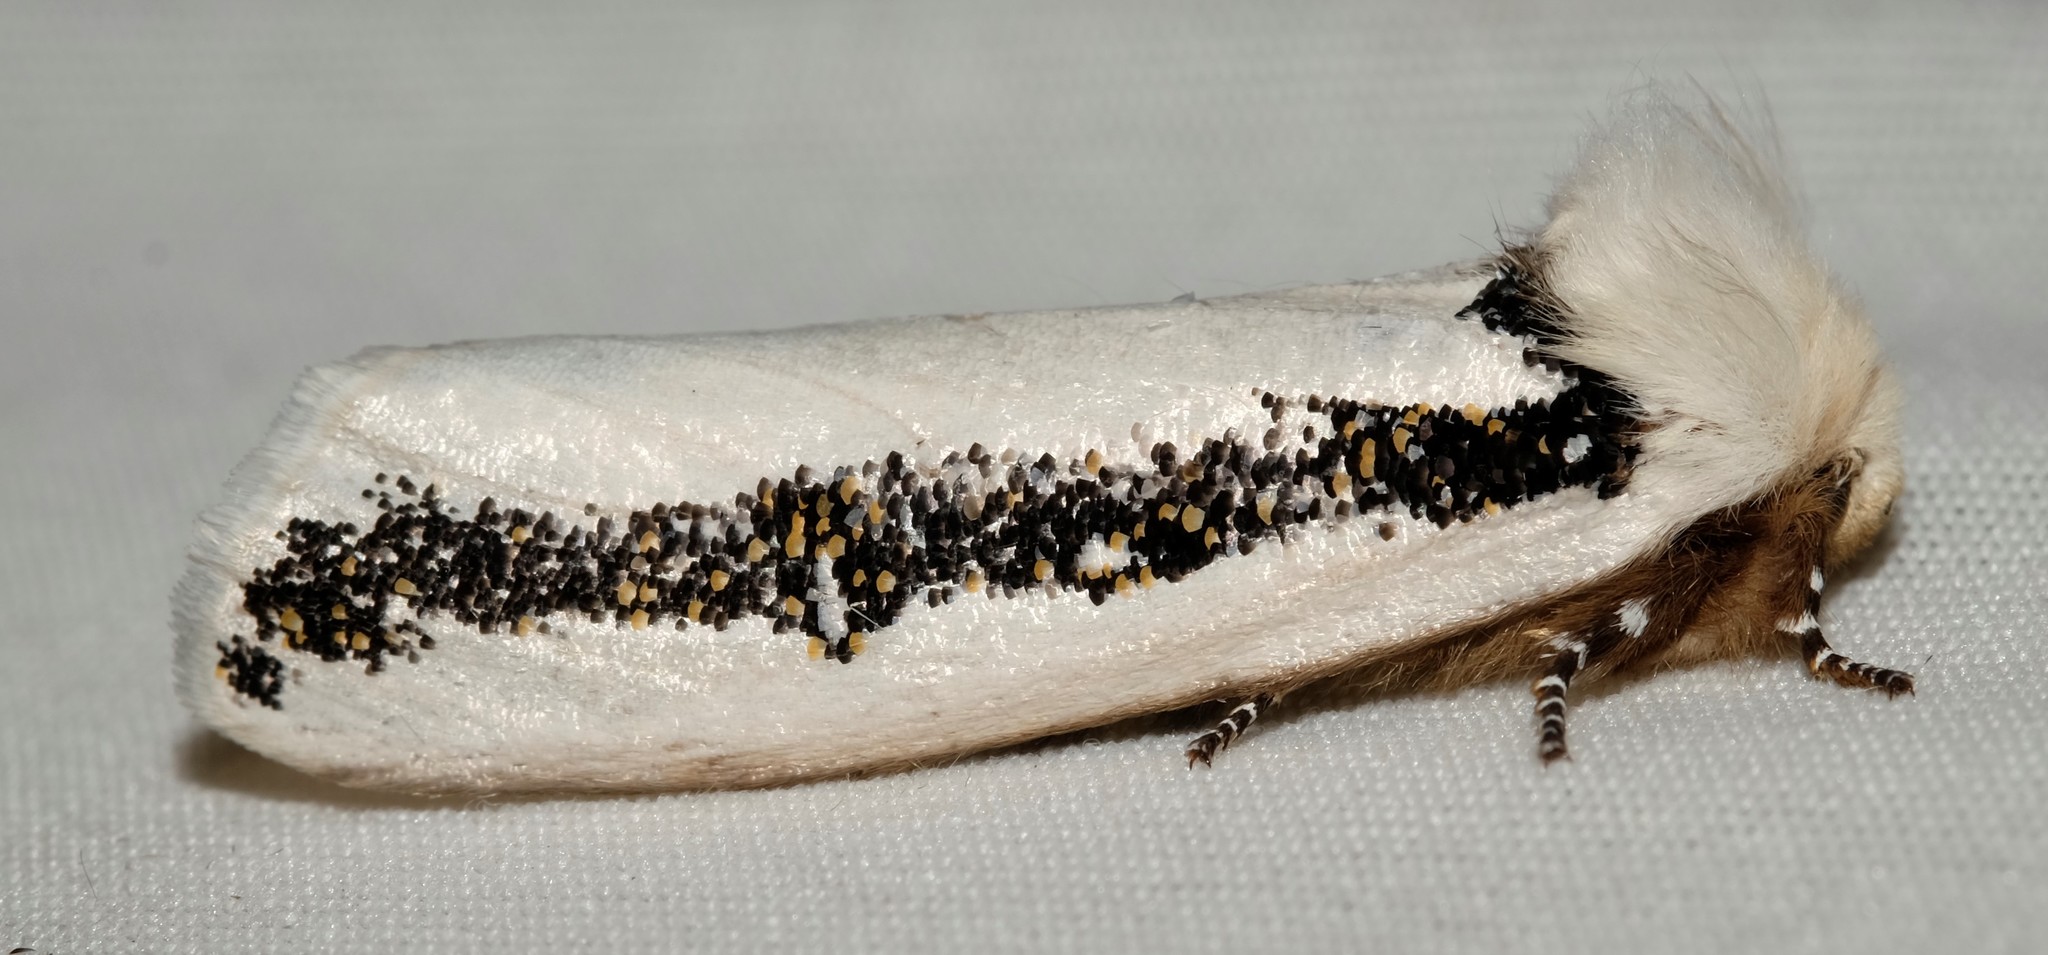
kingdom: Animalia
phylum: Arthropoda
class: Insecta
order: Lepidoptera
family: Oenosandridae
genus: Oenosandra
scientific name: Oenosandra boisduvalii
